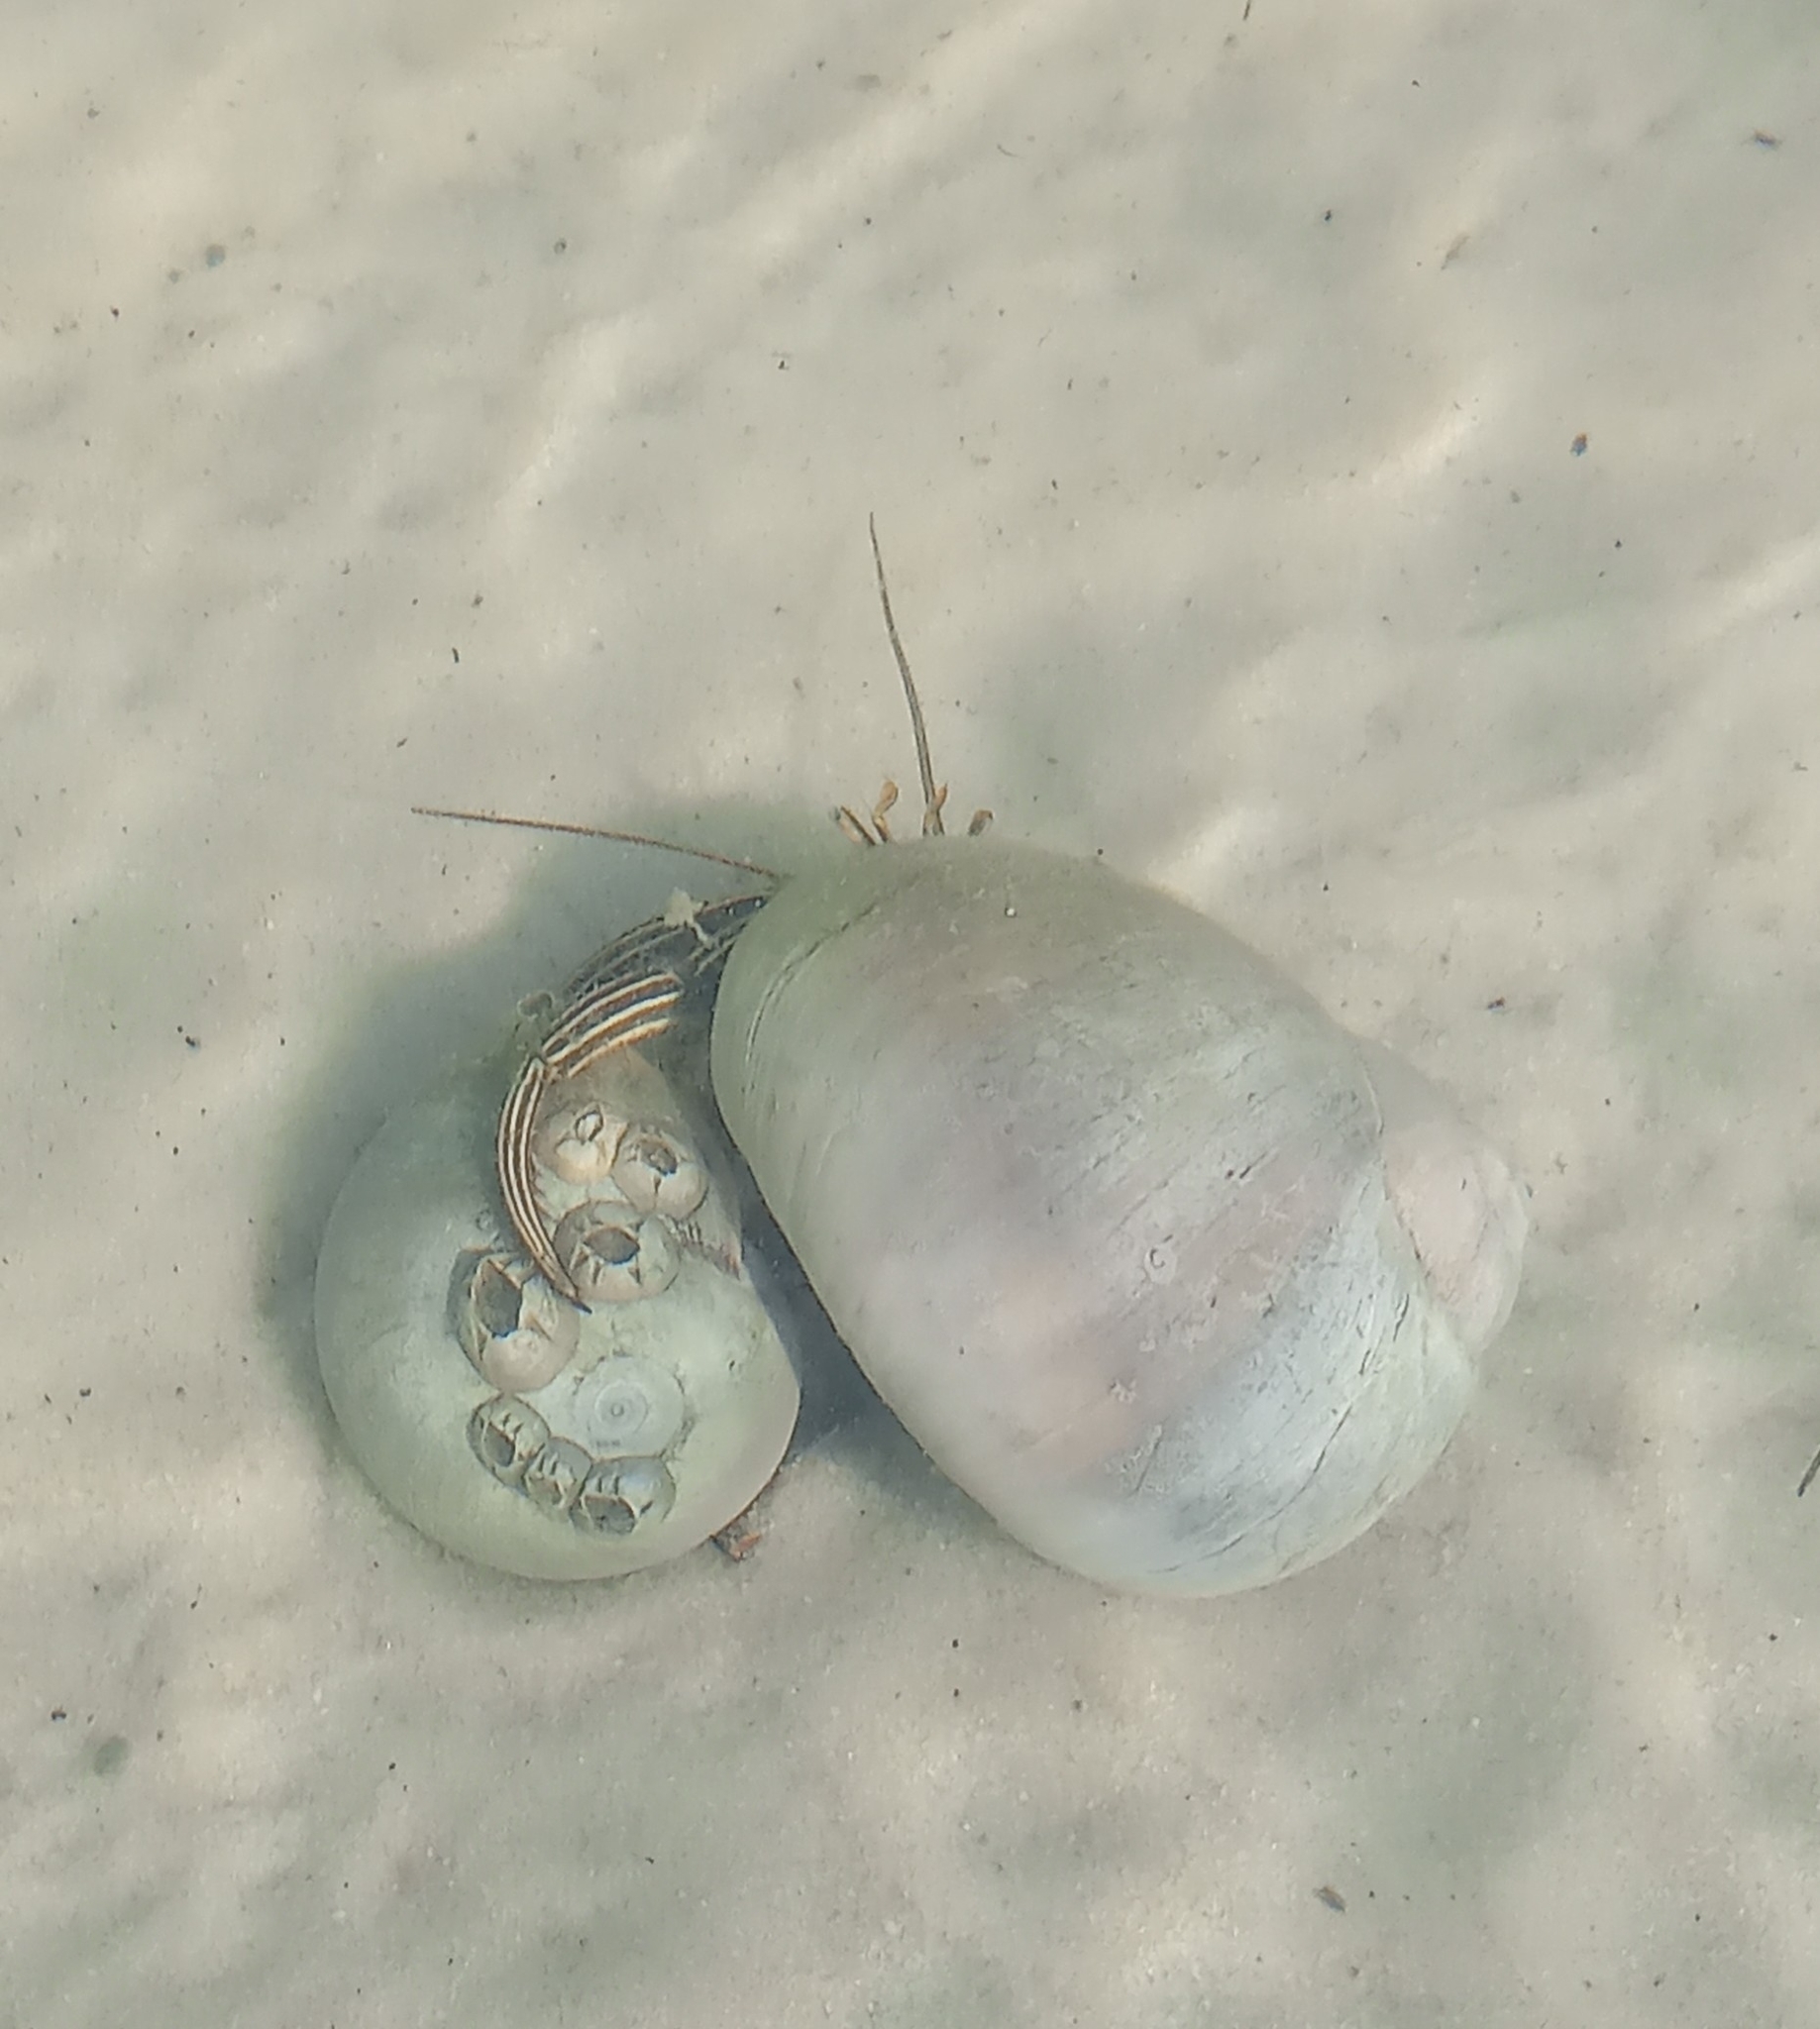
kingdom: Animalia
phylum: Arthropoda
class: Malacostraca
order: Decapoda
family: Diogenidae
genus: Clibanarius
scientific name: Clibanarius vittatus
